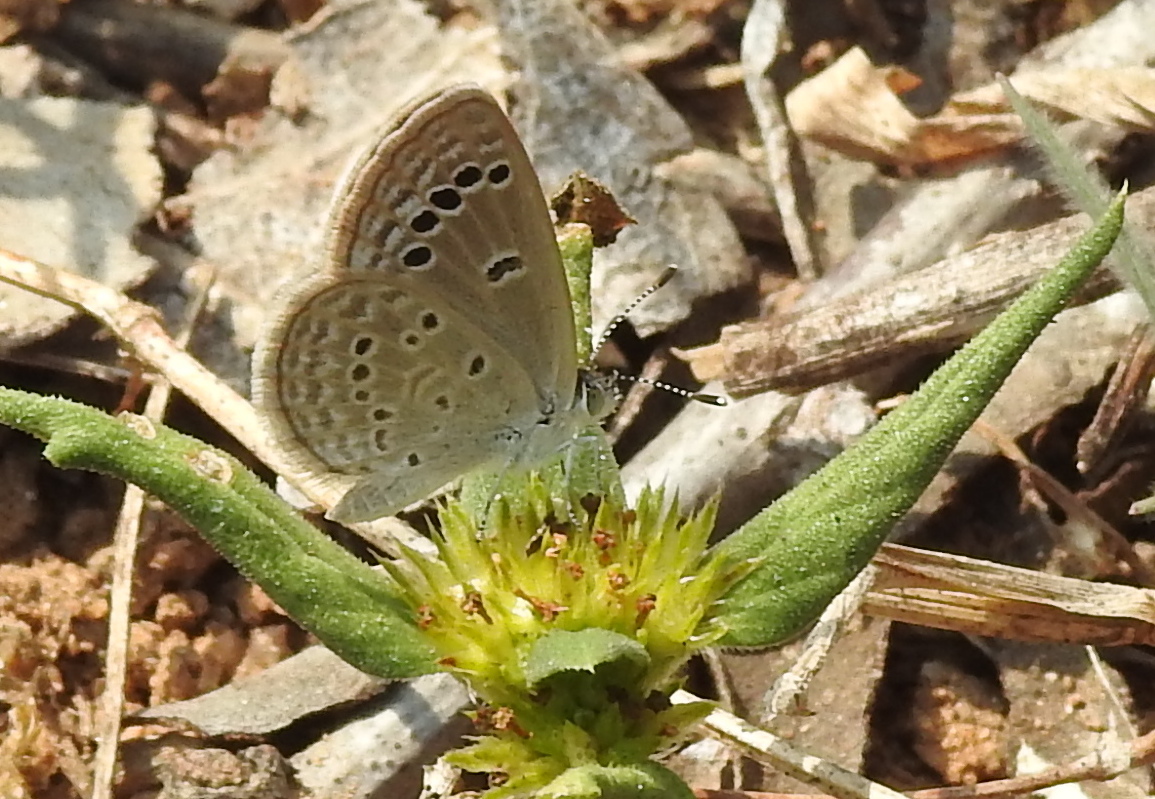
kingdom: Animalia
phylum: Arthropoda
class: Insecta
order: Lepidoptera
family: Lycaenidae
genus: Zizina
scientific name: Zizina otis
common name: Lesser grass blue
